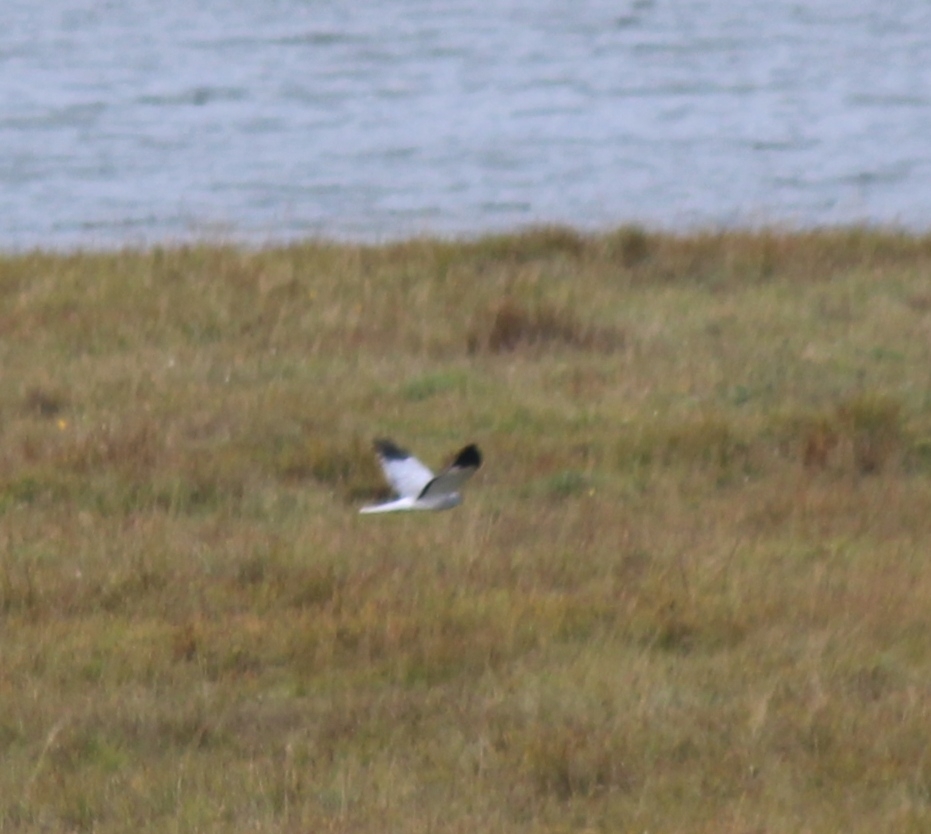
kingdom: Animalia
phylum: Chordata
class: Aves
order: Accipitriformes
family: Accipitridae
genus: Circus
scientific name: Circus cyaneus
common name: Hen harrier
